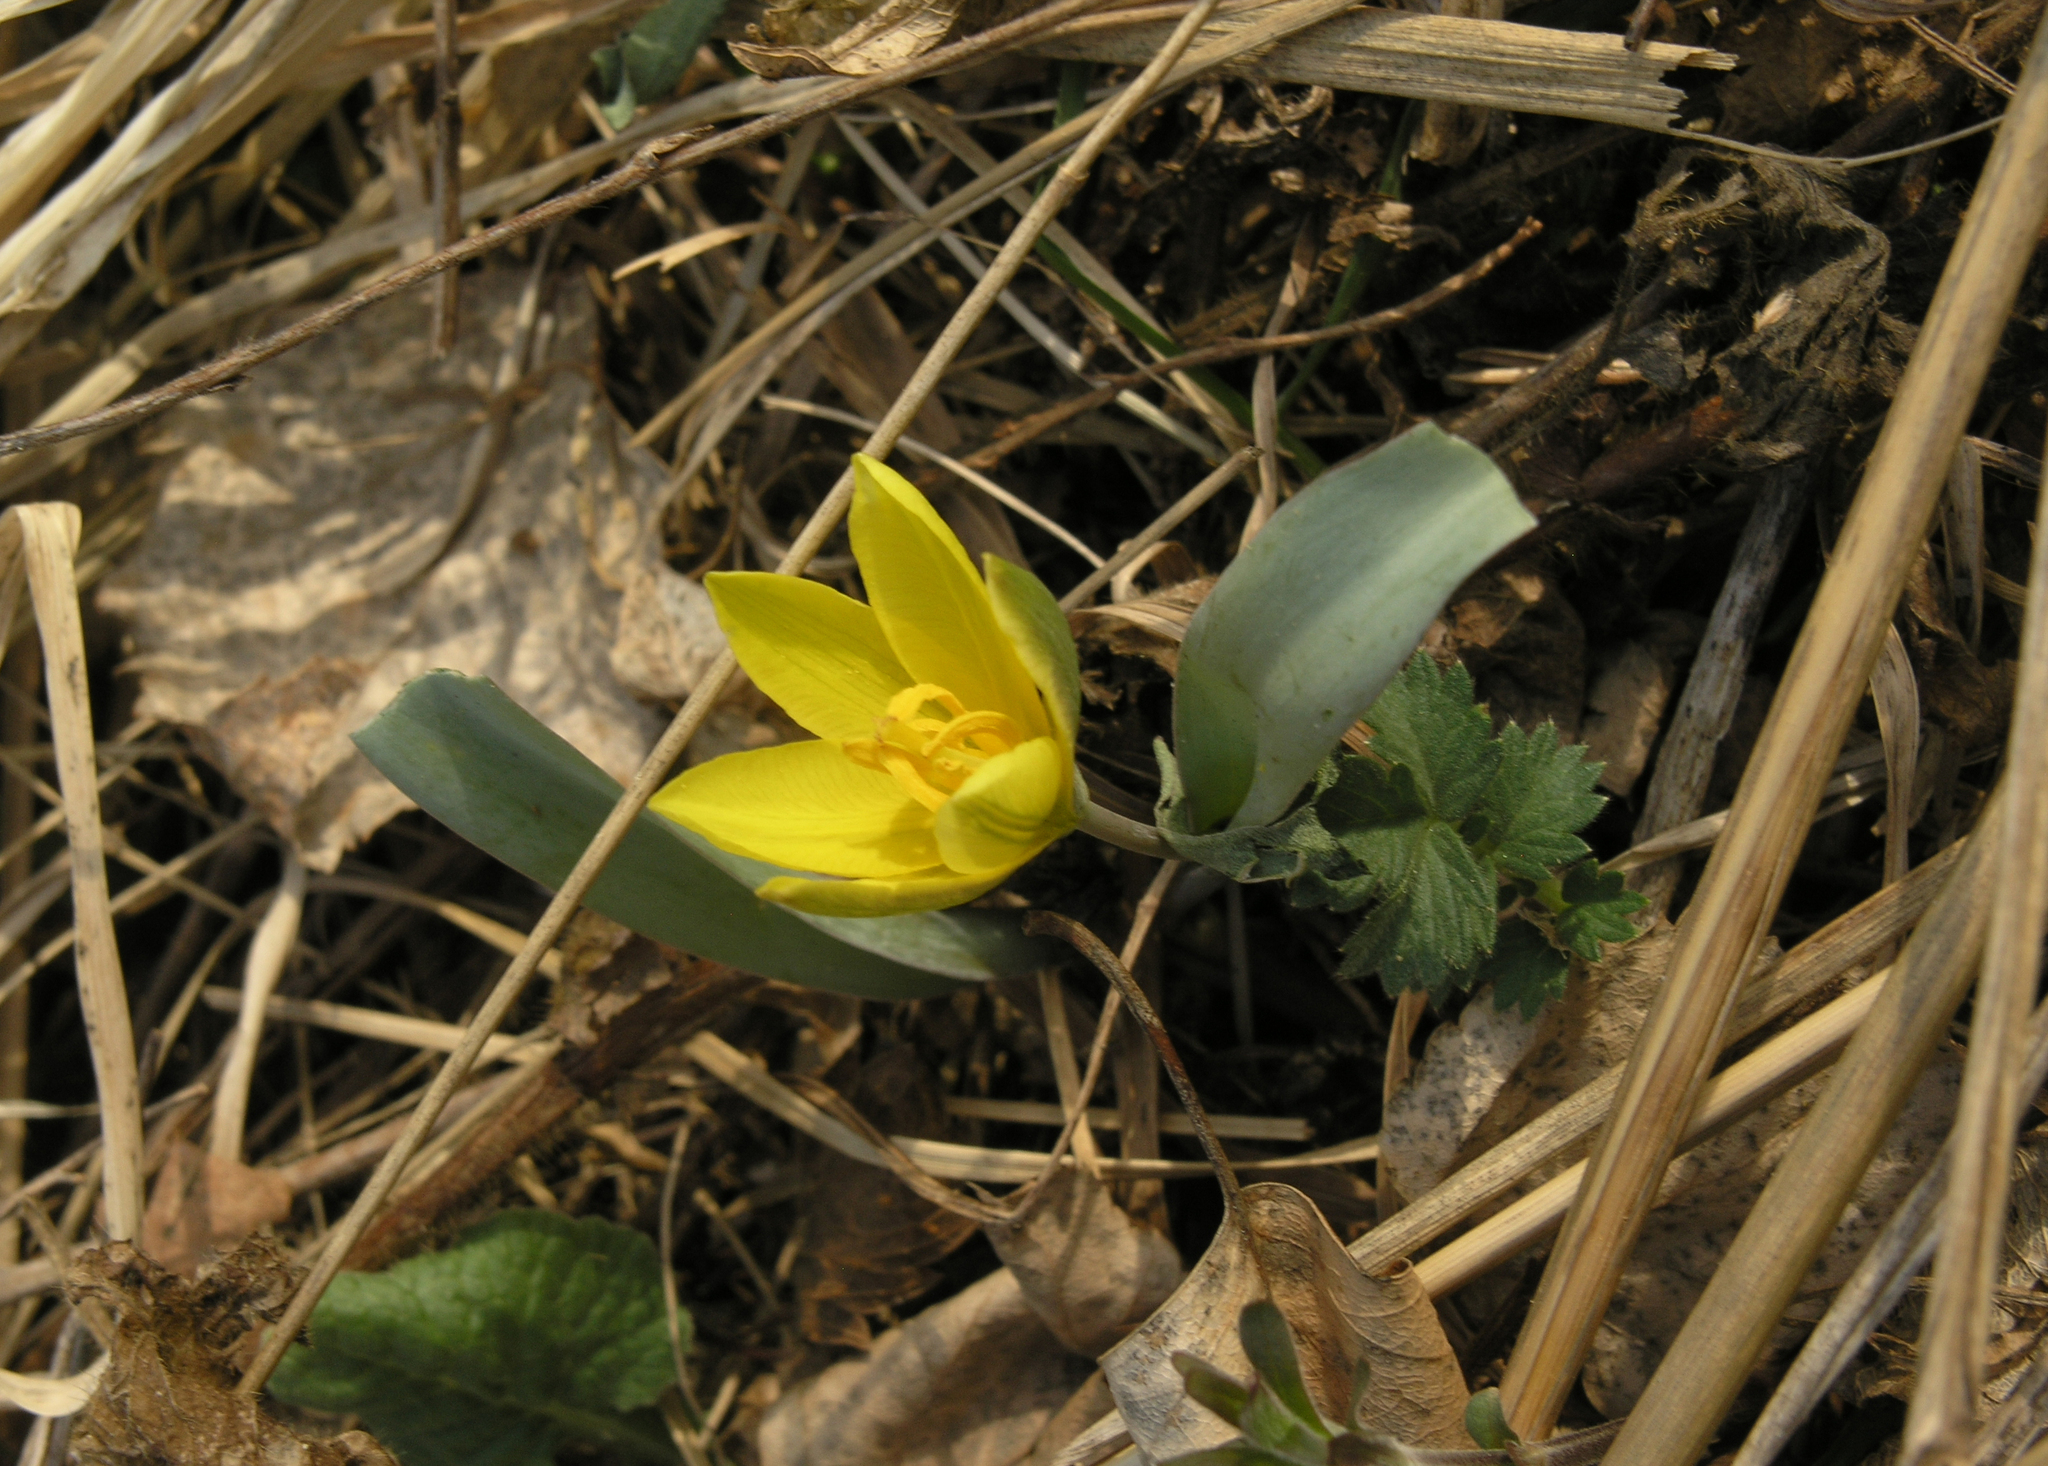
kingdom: Plantae
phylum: Tracheophyta
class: Liliopsida
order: Liliales
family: Liliaceae
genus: Tulipa
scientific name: Tulipa uniflora
